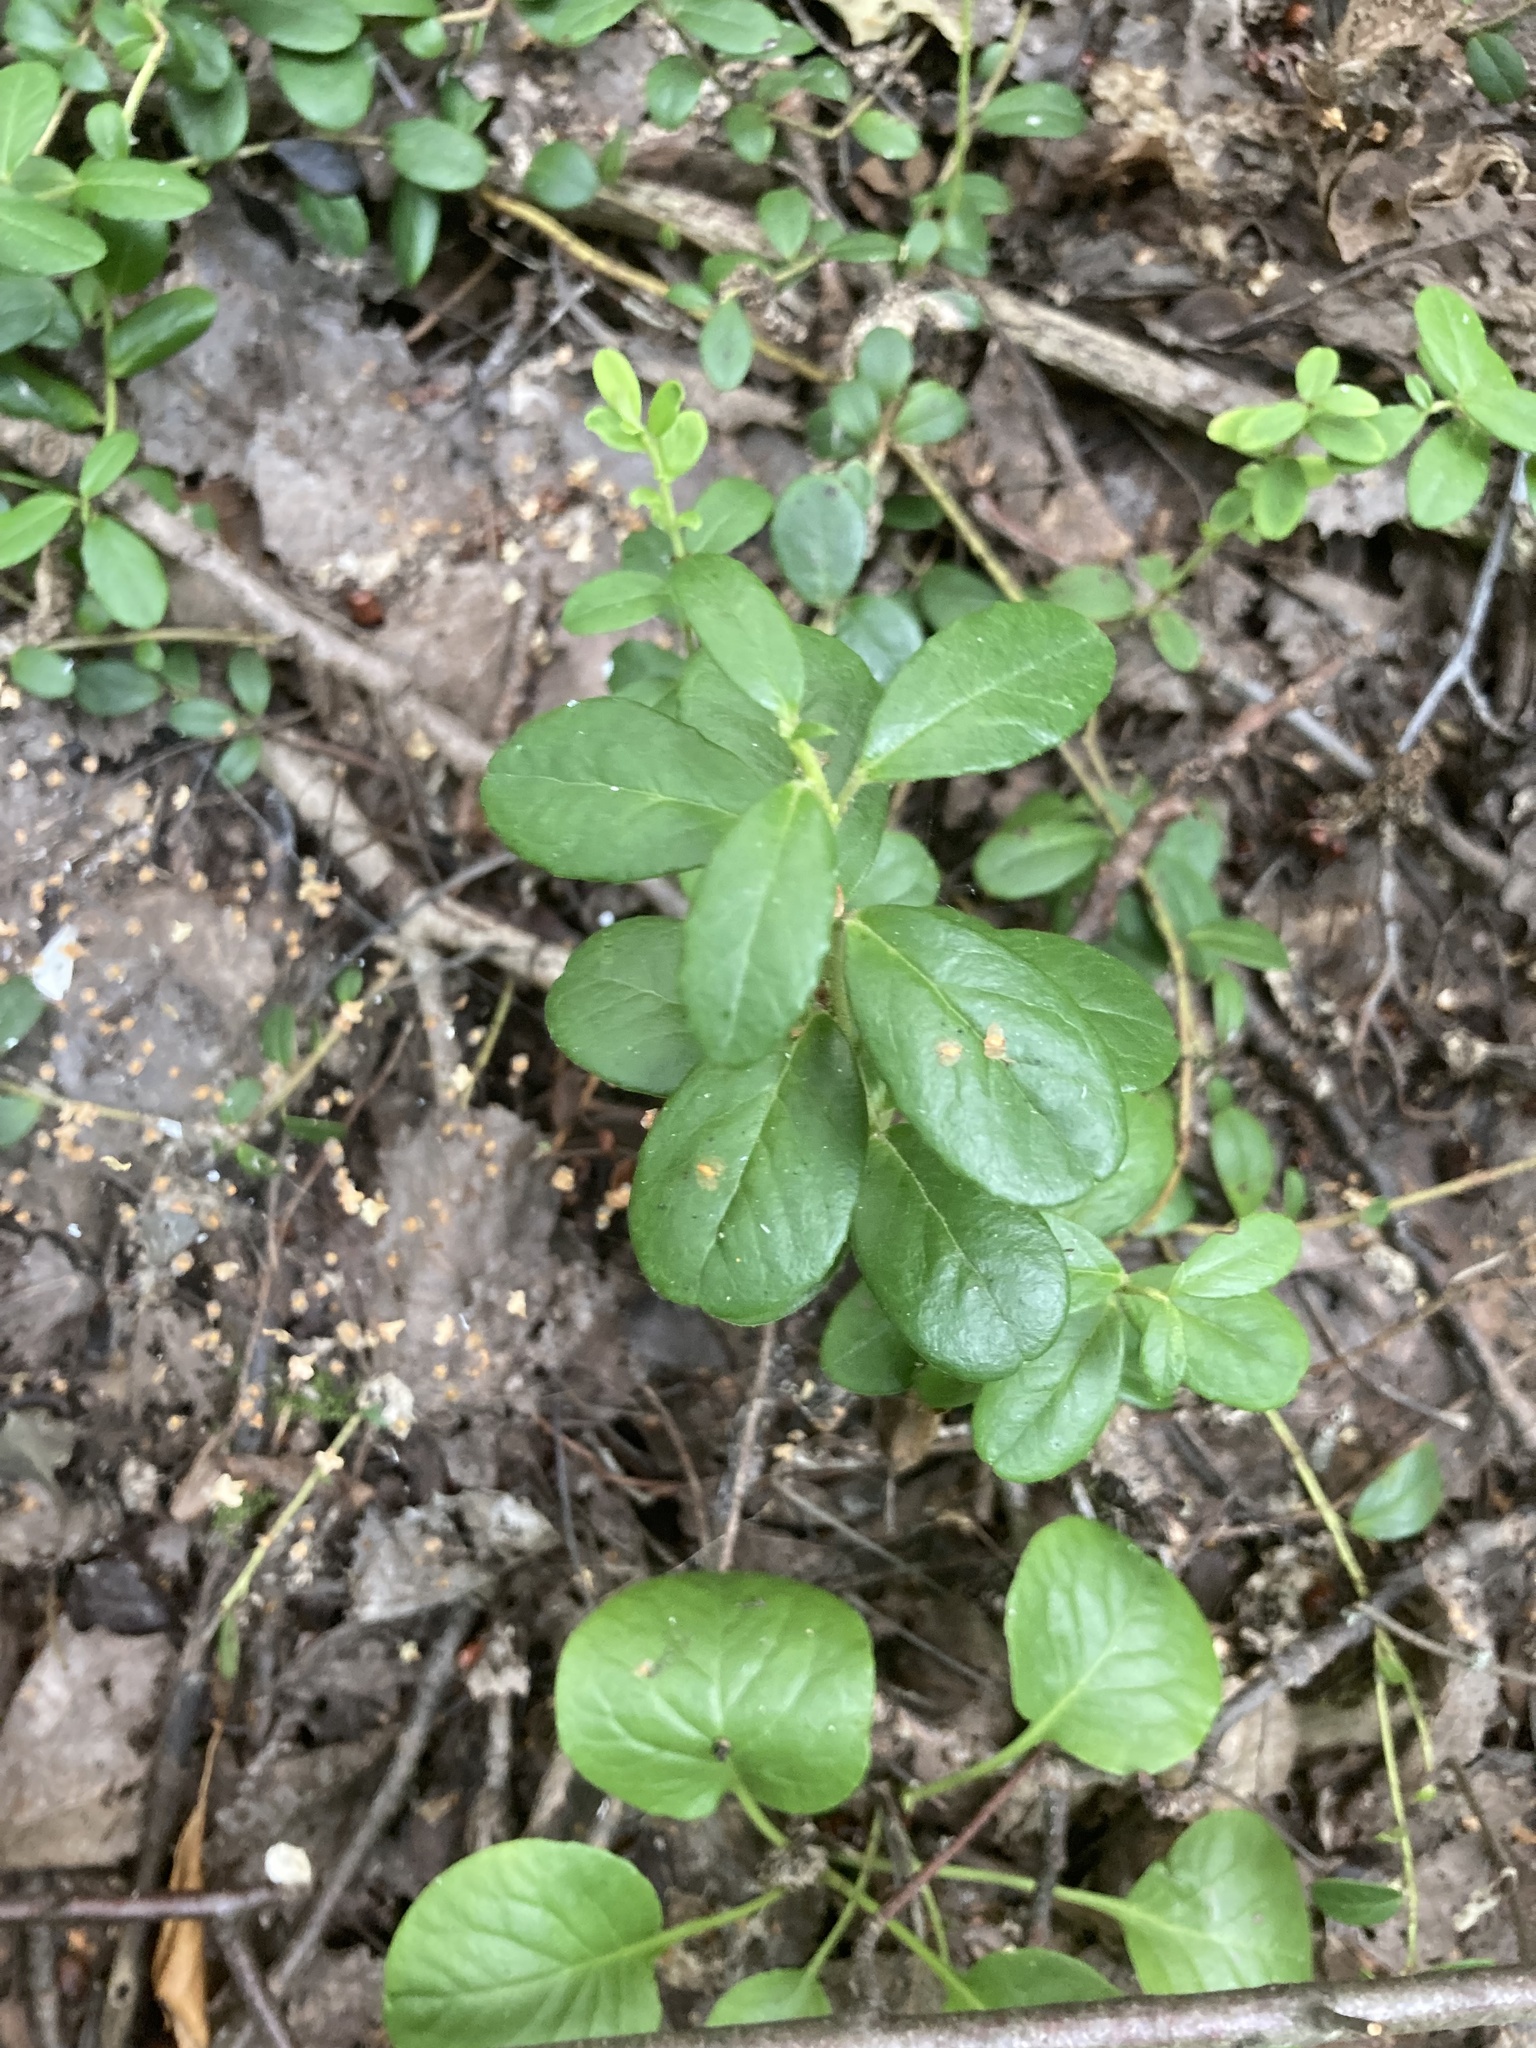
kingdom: Plantae
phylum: Tracheophyta
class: Magnoliopsida
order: Ericales
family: Ericaceae
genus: Vaccinium
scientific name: Vaccinium vitis-idaea
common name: Cowberry
